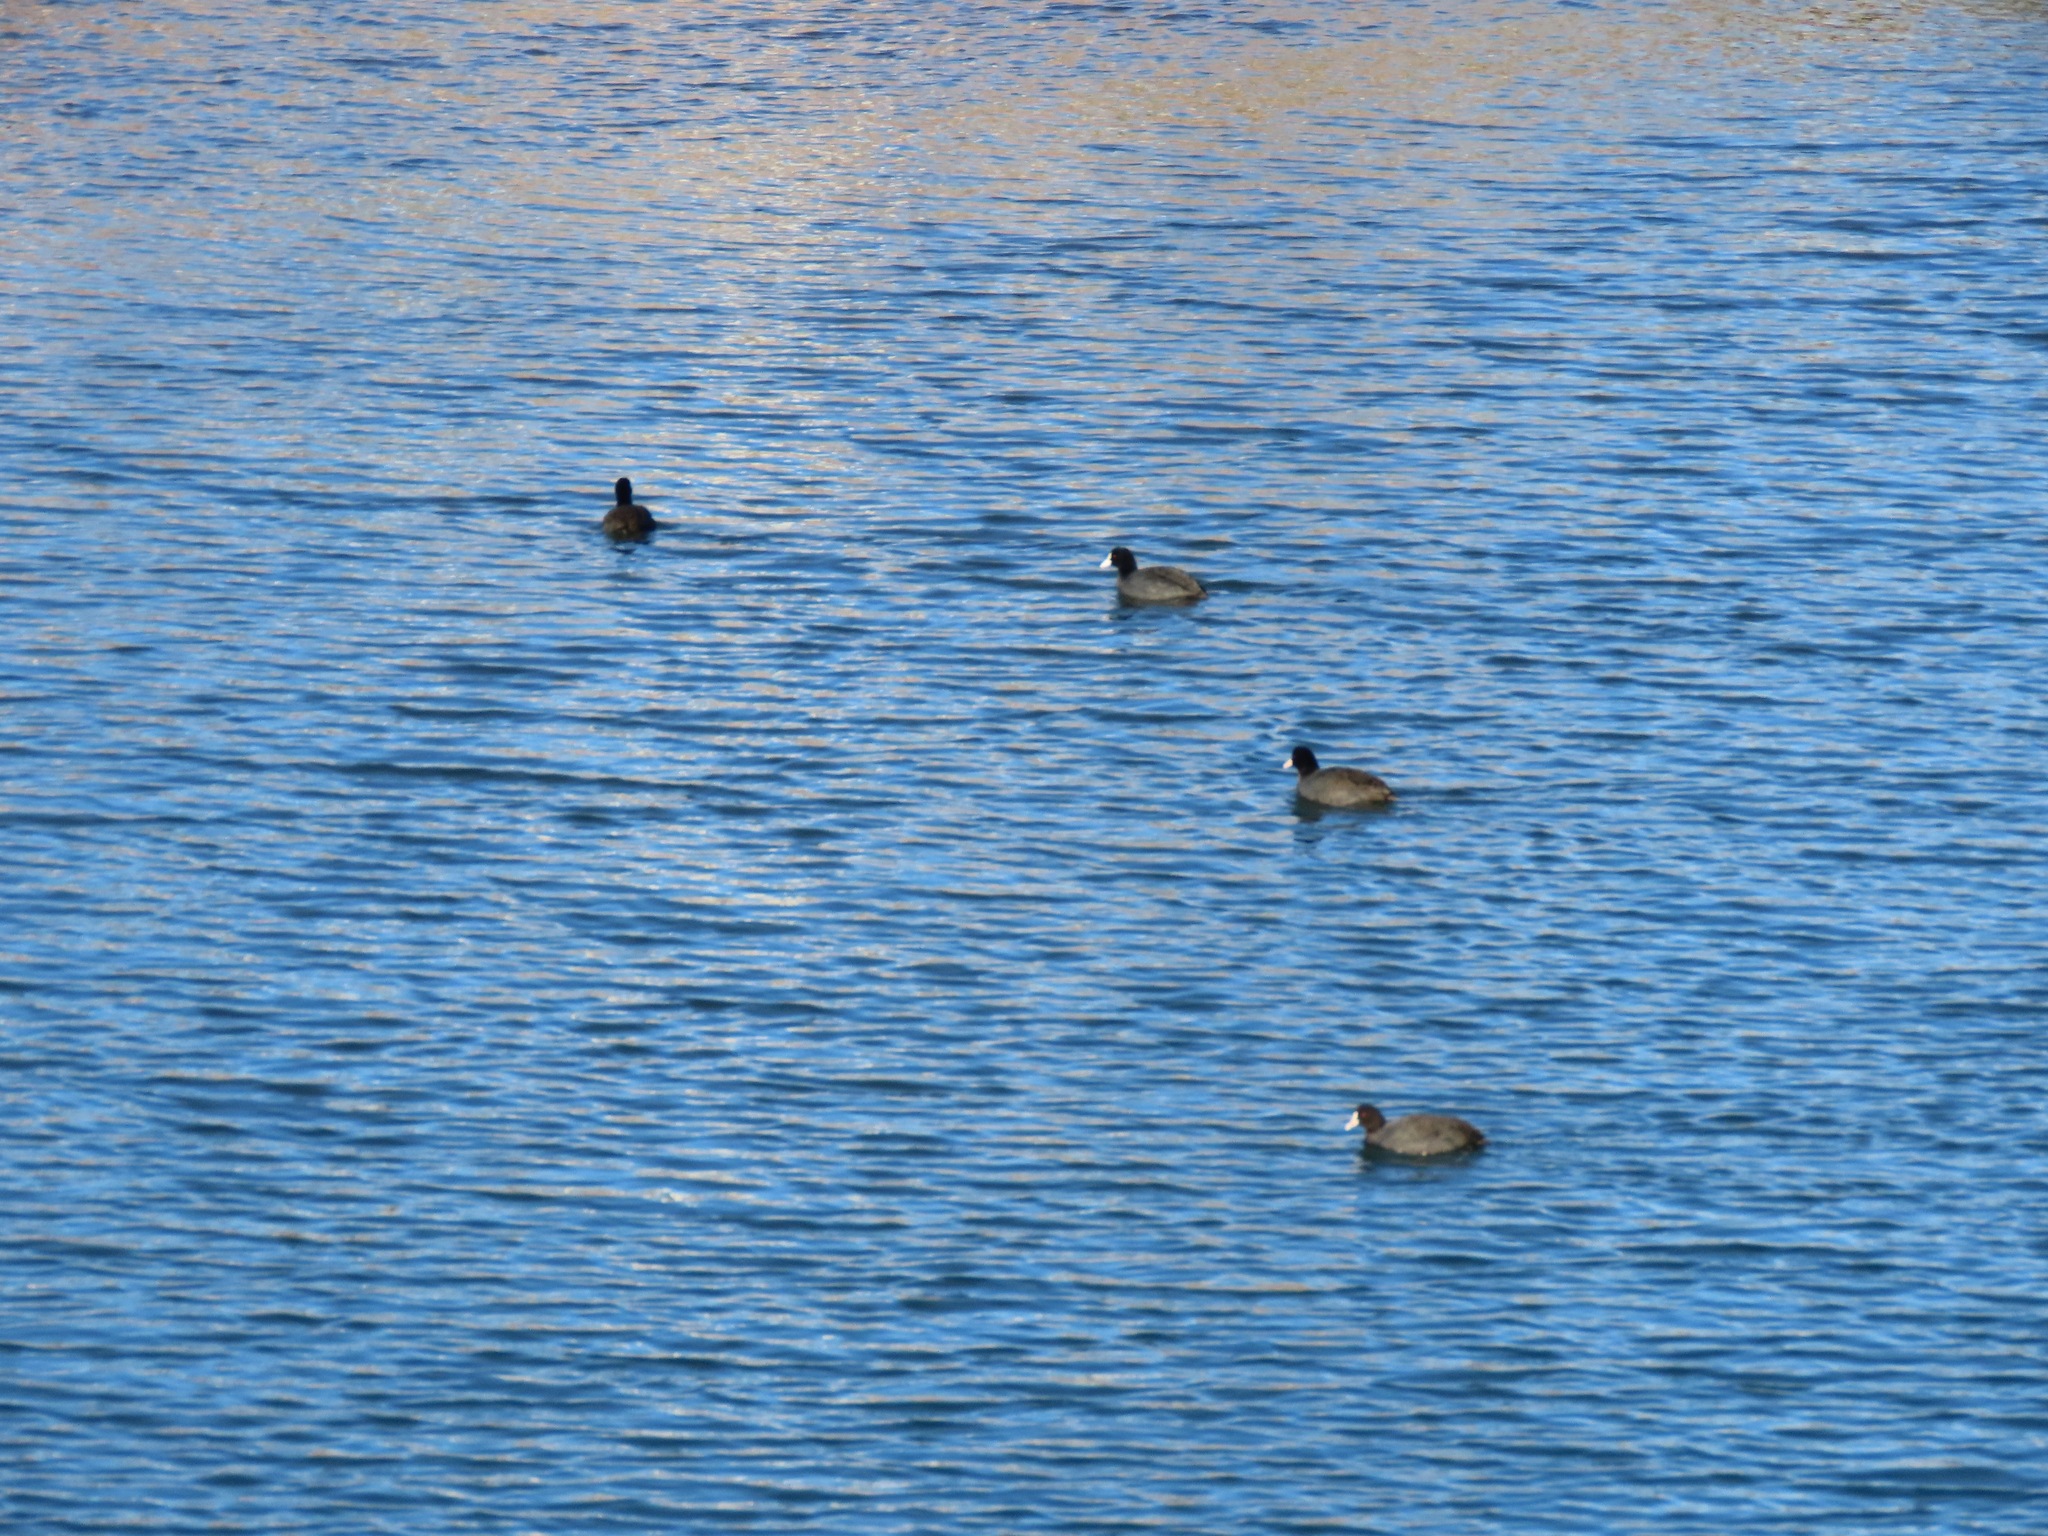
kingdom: Animalia
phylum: Chordata
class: Aves
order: Gruiformes
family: Rallidae
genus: Fulica
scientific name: Fulica atra
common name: Eurasian coot
